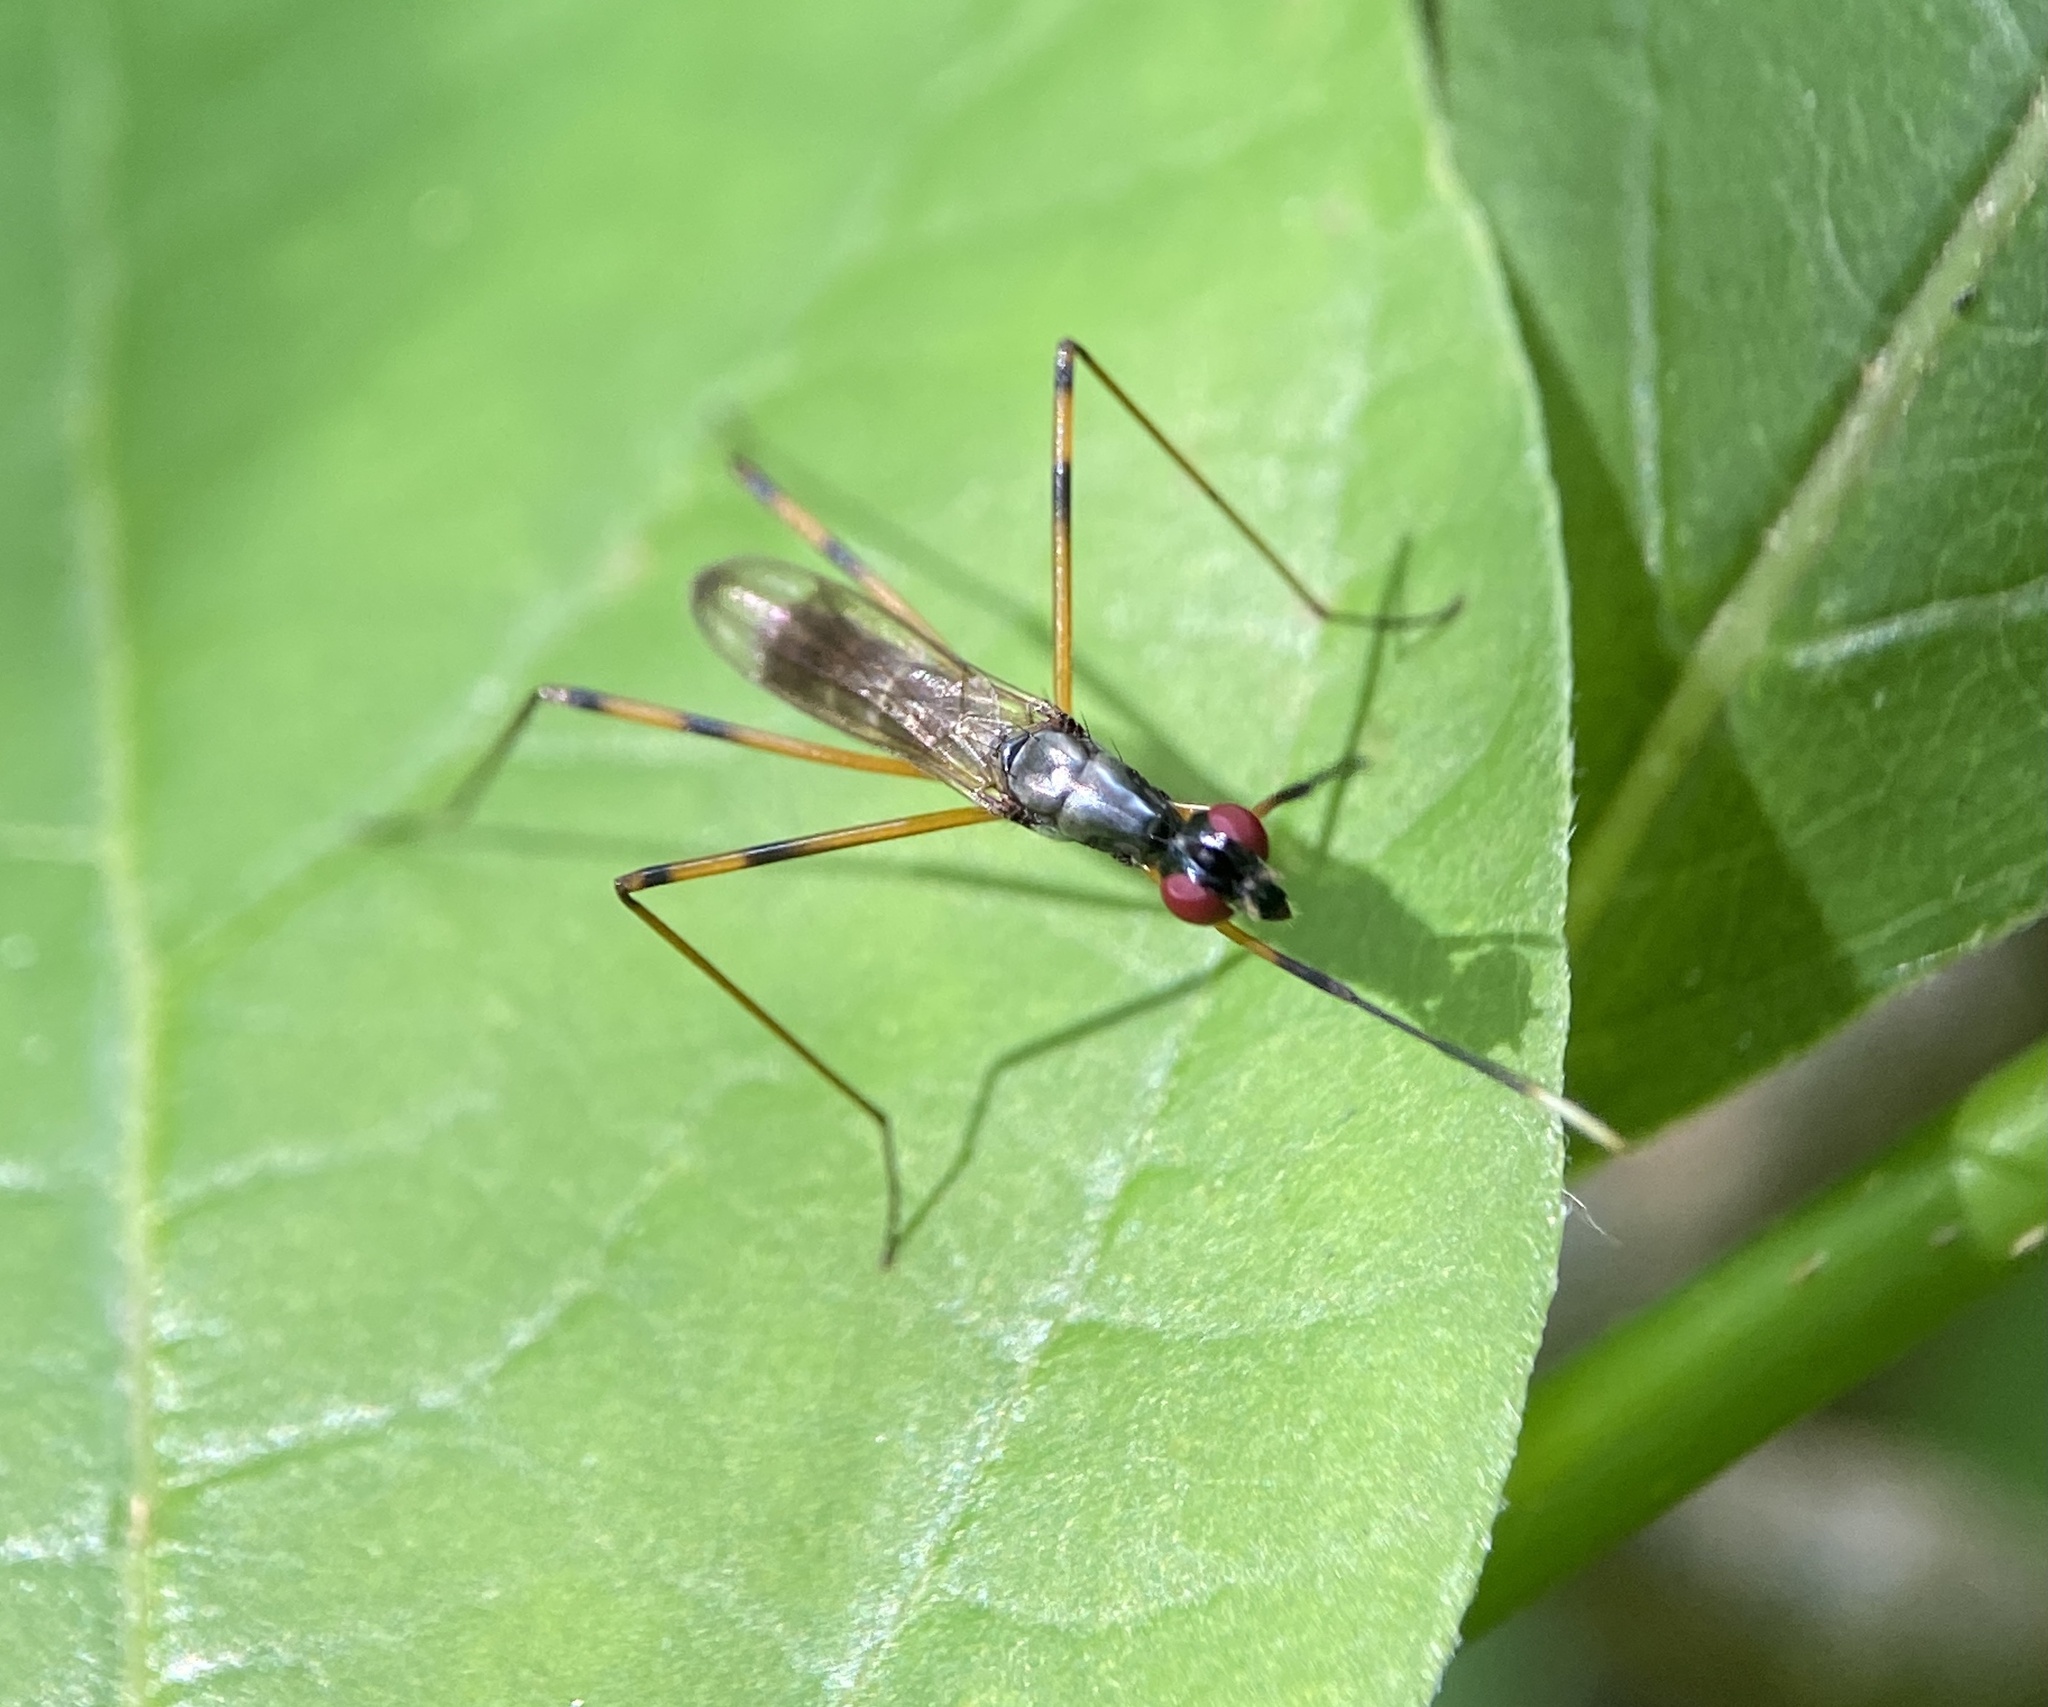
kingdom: Animalia
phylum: Arthropoda
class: Insecta
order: Diptera
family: Micropezidae
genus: Rainieria
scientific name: Rainieria antennaepes
